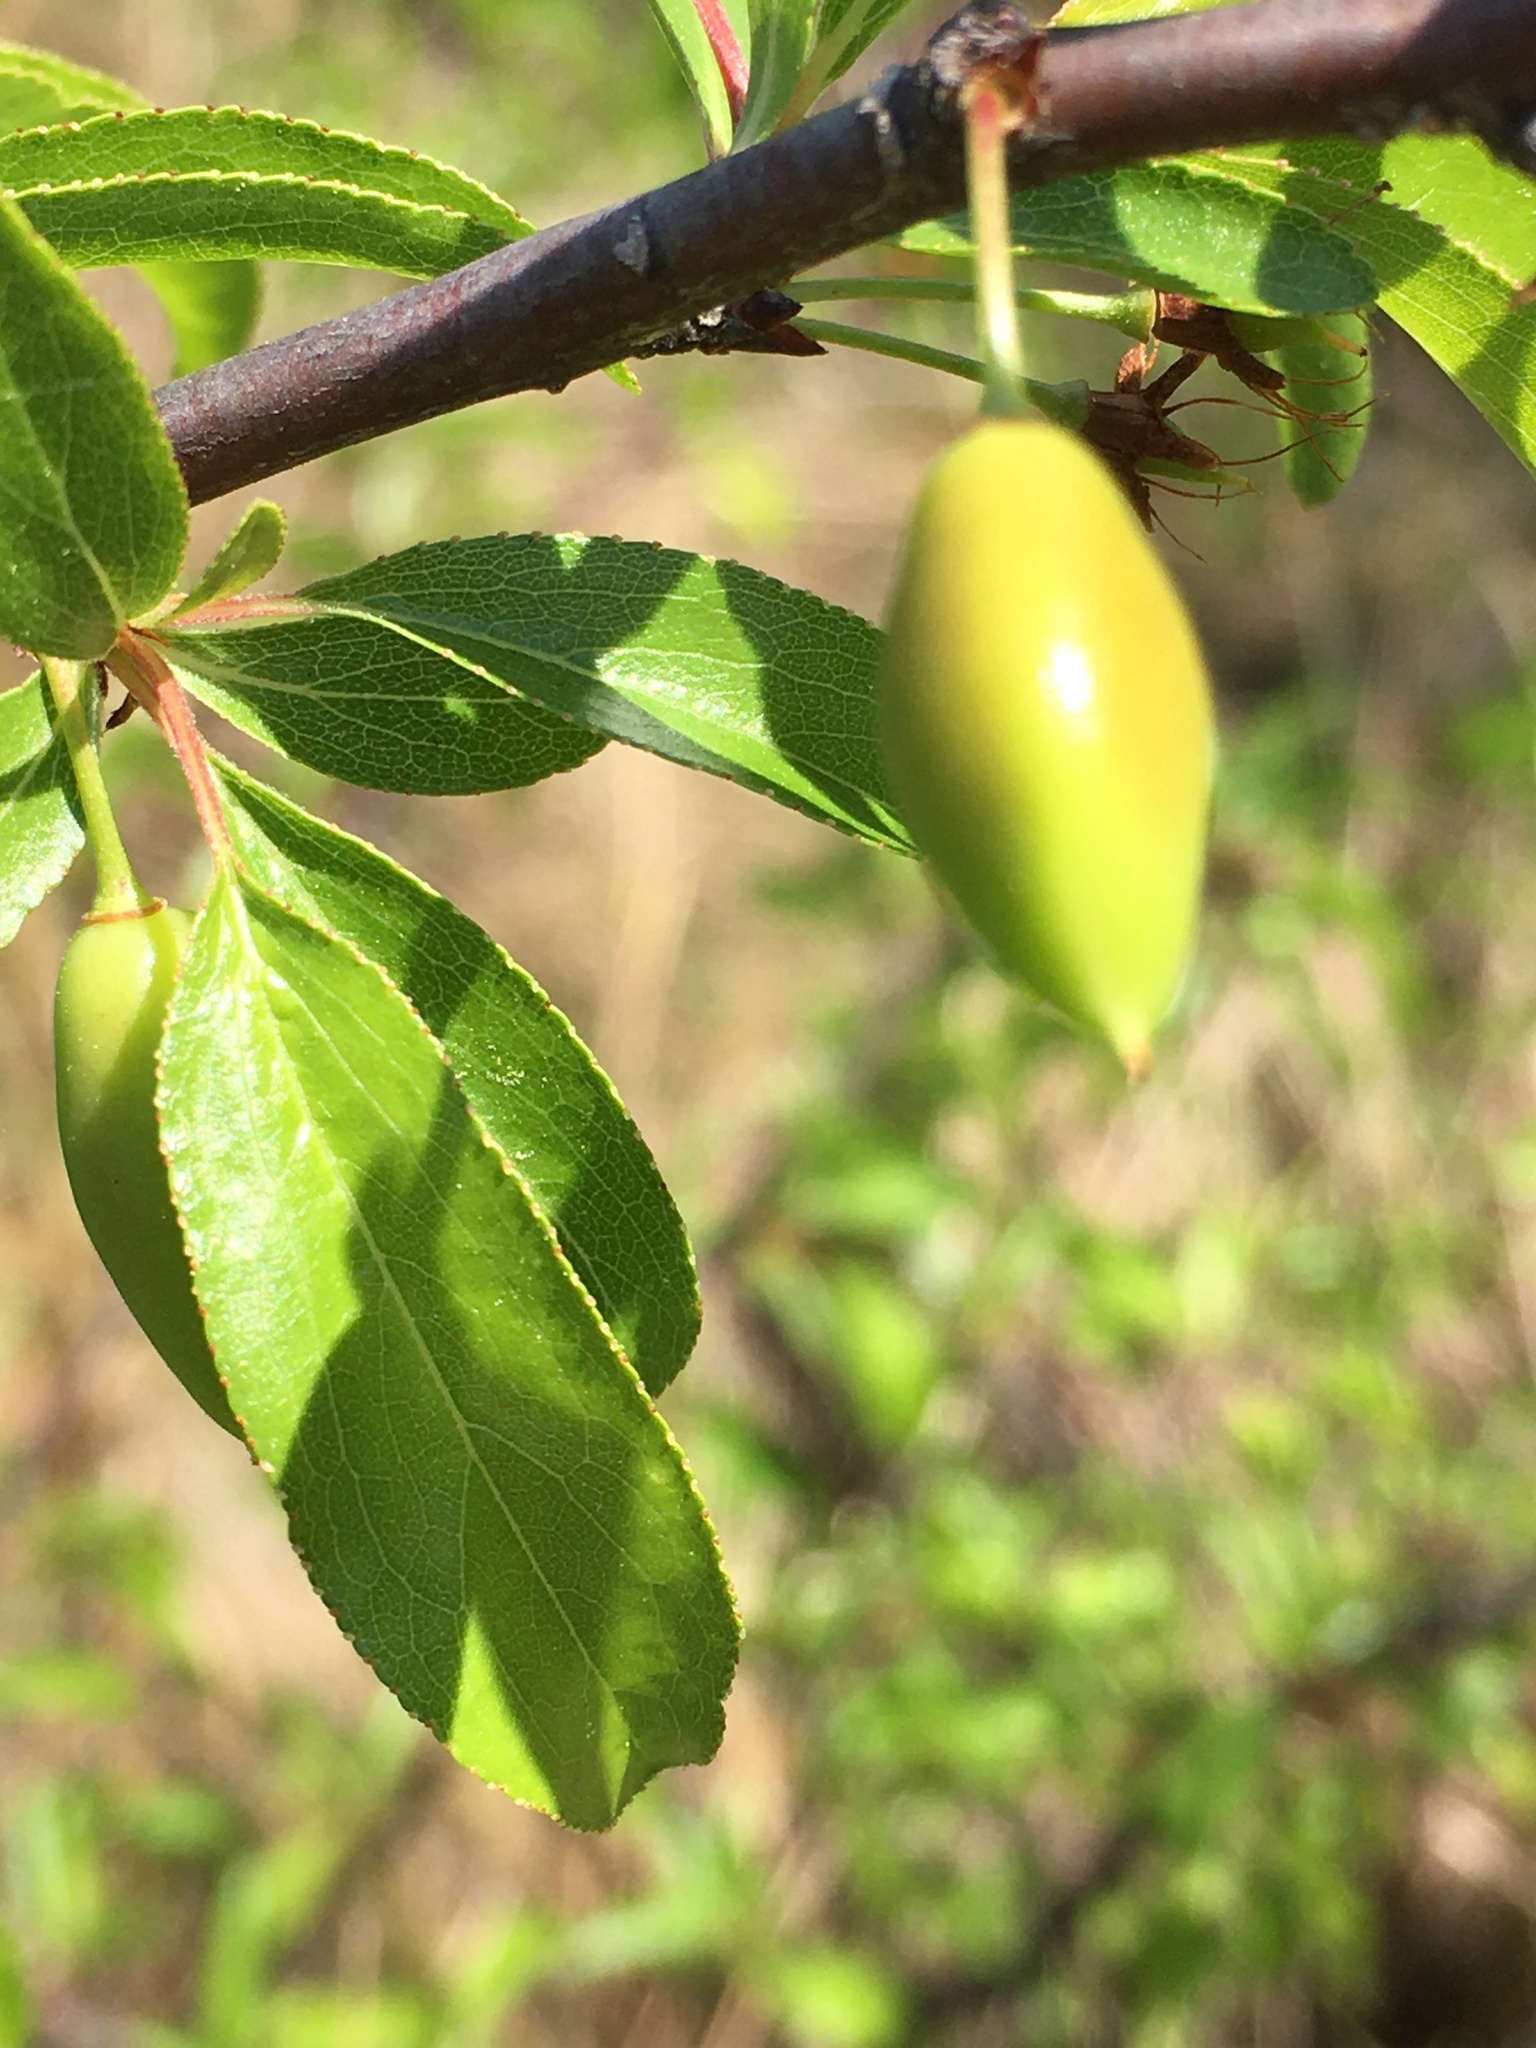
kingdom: Plantae
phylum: Tracheophyta
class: Magnoliopsida
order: Rosales
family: Rosaceae
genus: Prunus
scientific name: Prunus angustifolia
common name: Cherokee plum
